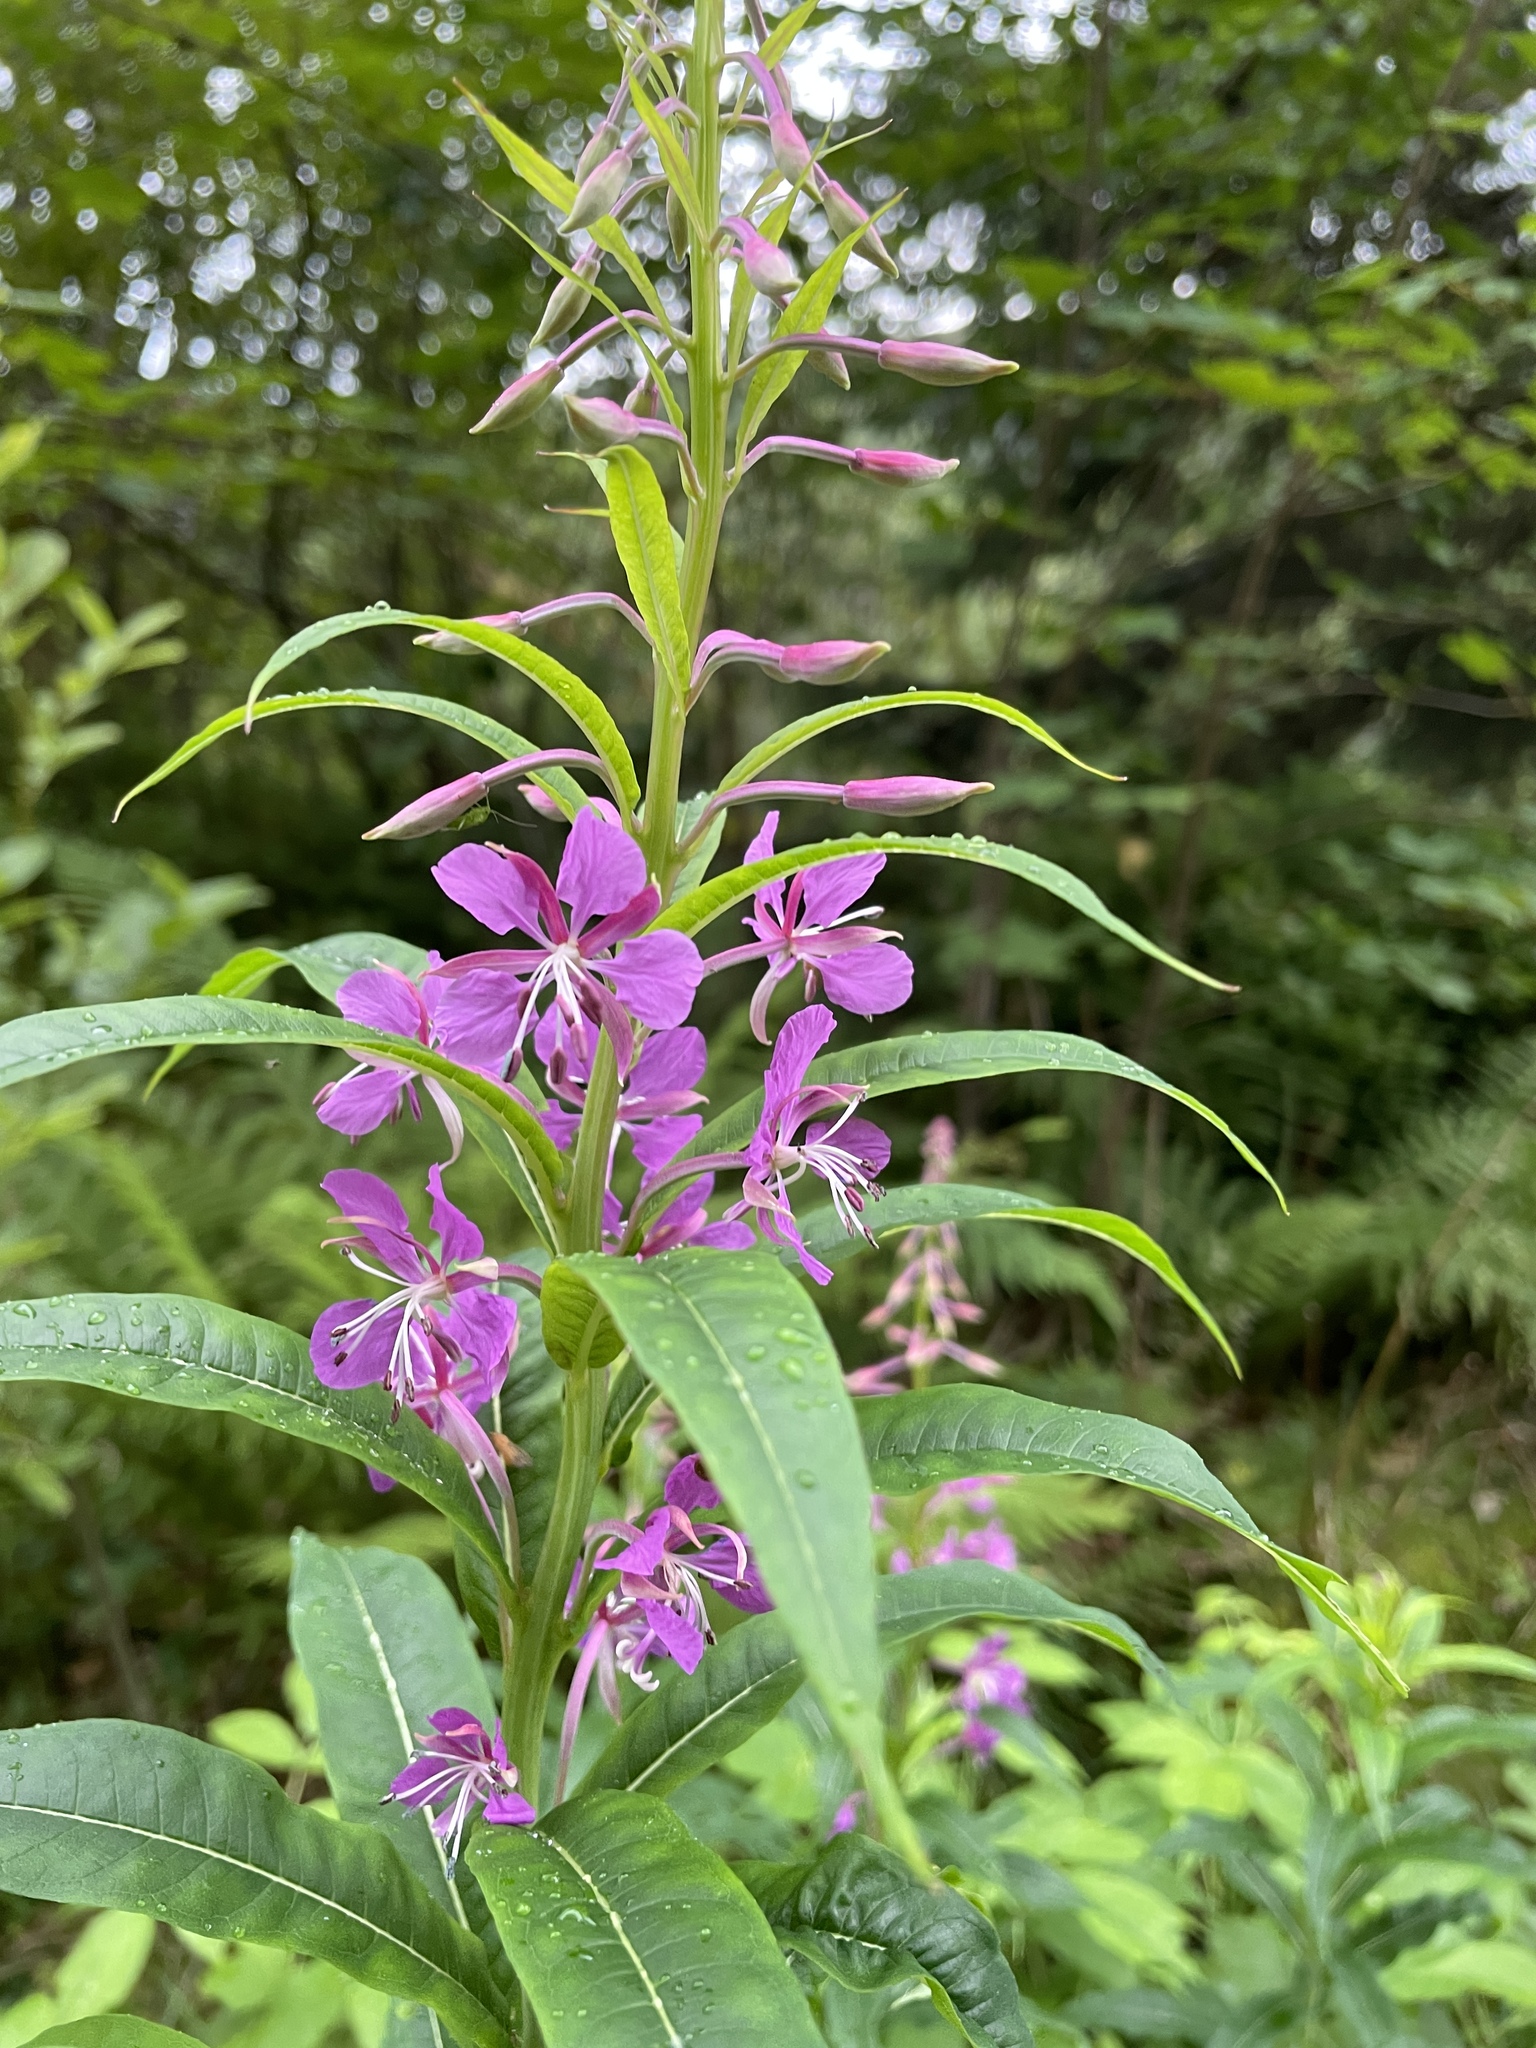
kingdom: Plantae
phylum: Tracheophyta
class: Magnoliopsida
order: Myrtales
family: Onagraceae
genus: Chamaenerion
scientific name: Chamaenerion angustifolium
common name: Fireweed
